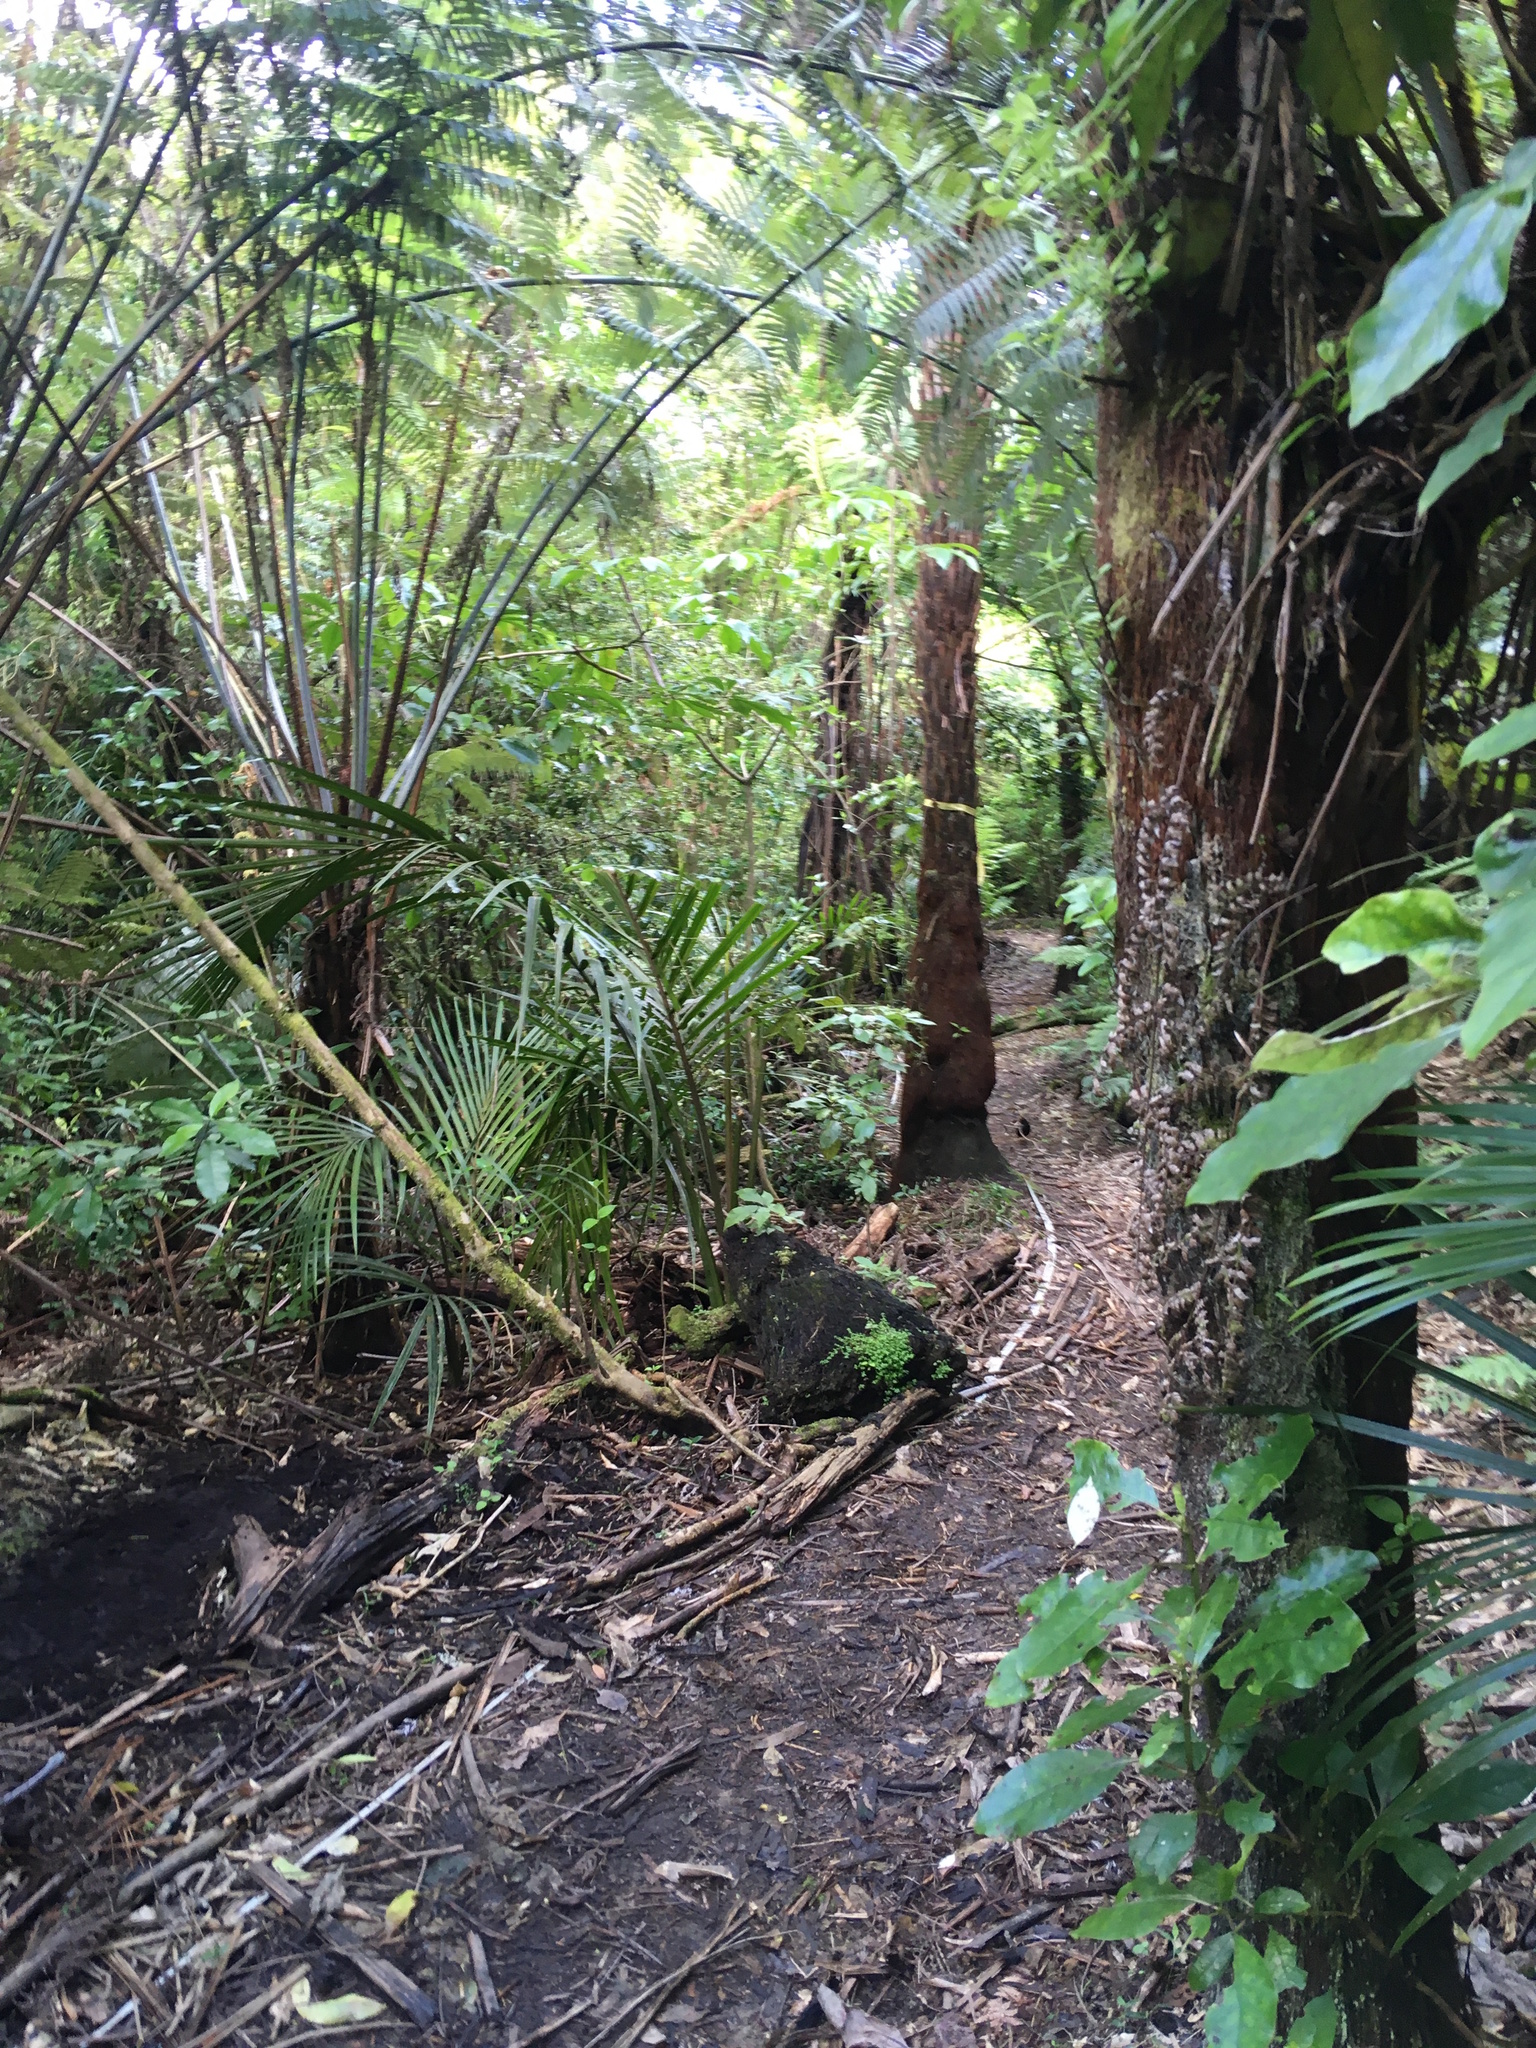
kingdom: Plantae
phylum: Tracheophyta
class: Liliopsida
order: Arecales
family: Arecaceae
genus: Rhopalostylis
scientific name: Rhopalostylis sapida
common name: Feather-duster palm
